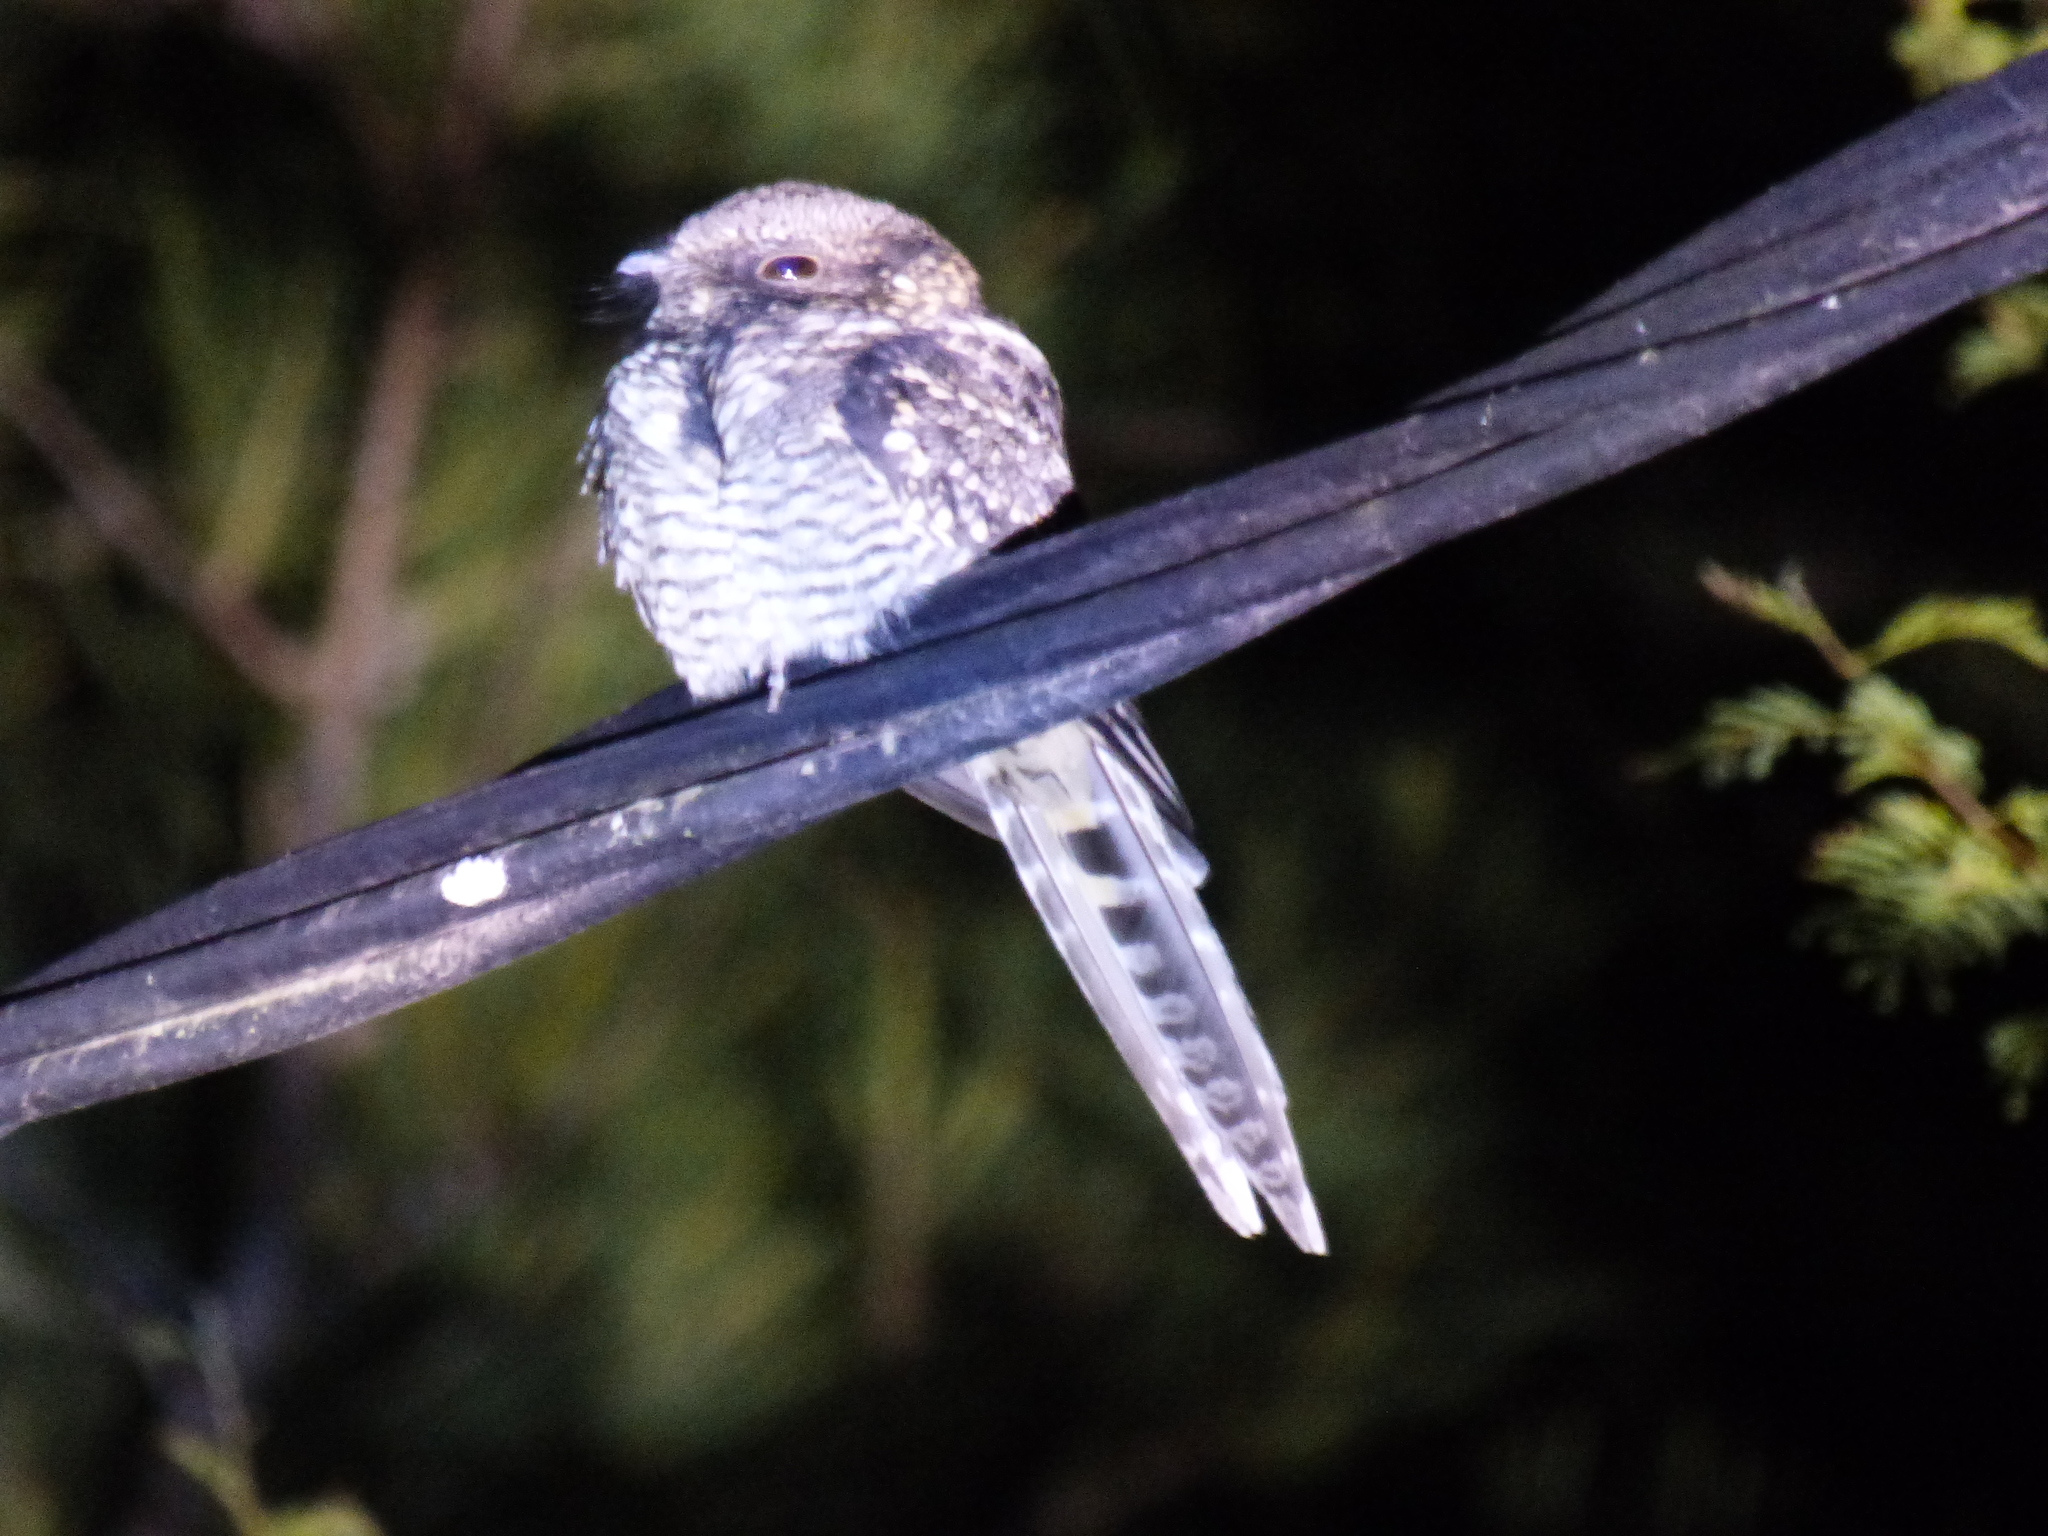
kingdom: Animalia
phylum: Chordata
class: Aves
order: Caprimulgiformes
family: Caprimulgidae
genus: Hydropsalis
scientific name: Hydropsalis torquata
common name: Scissor-tailed nightjar
